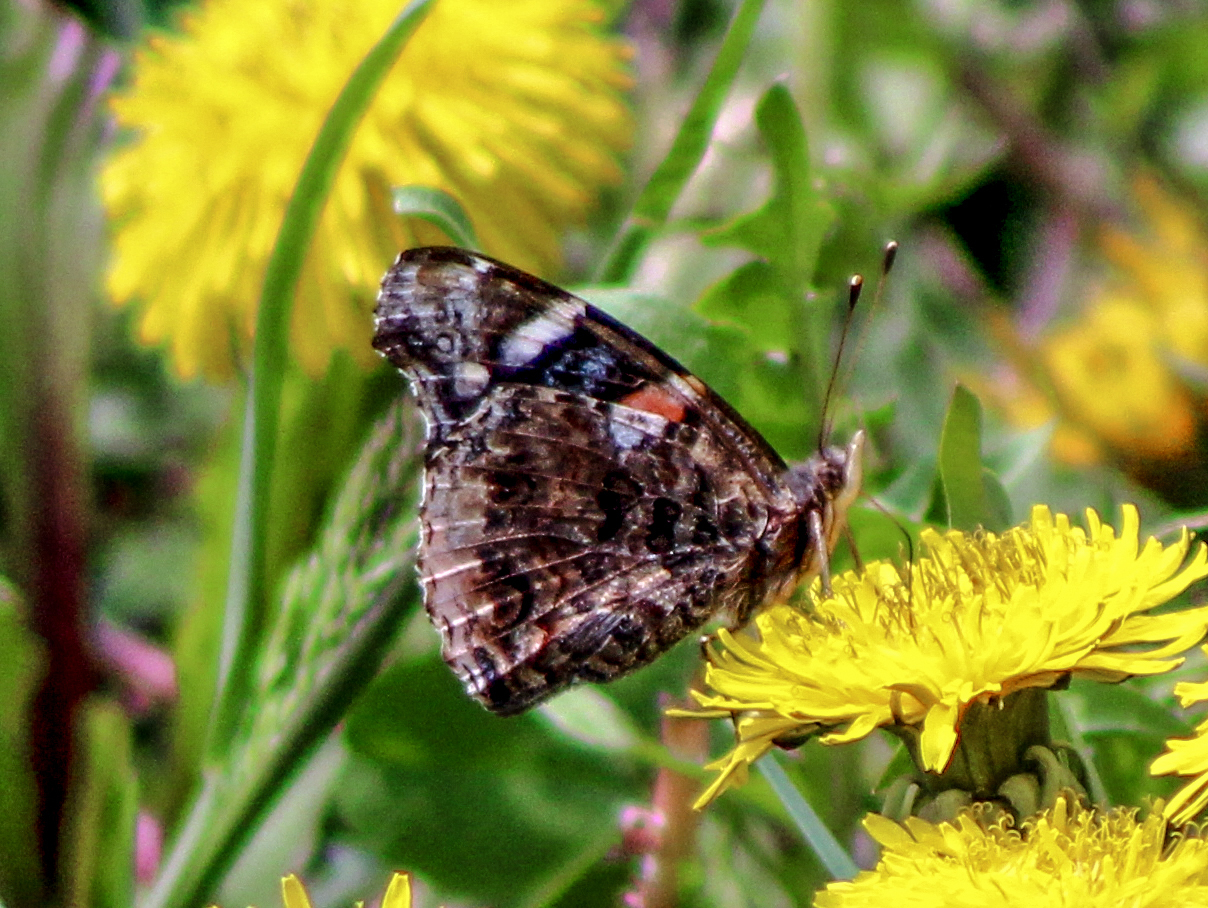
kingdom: Animalia
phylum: Arthropoda
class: Insecta
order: Lepidoptera
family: Nymphalidae
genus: Vanessa
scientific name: Vanessa atalanta
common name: Red admiral
